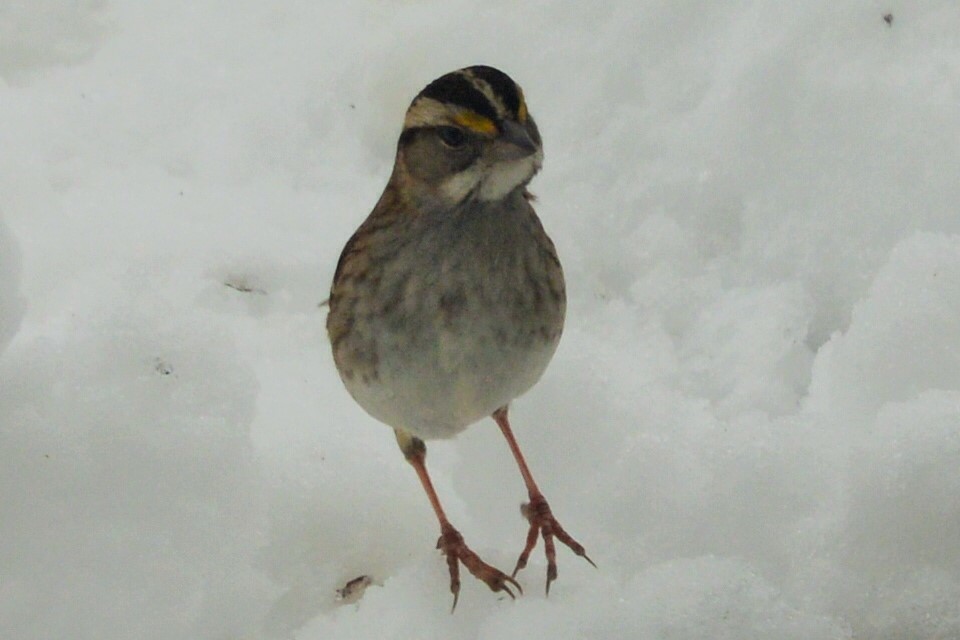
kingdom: Animalia
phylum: Chordata
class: Aves
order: Passeriformes
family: Passerellidae
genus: Zonotrichia
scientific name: Zonotrichia albicollis
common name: White-throated sparrow
